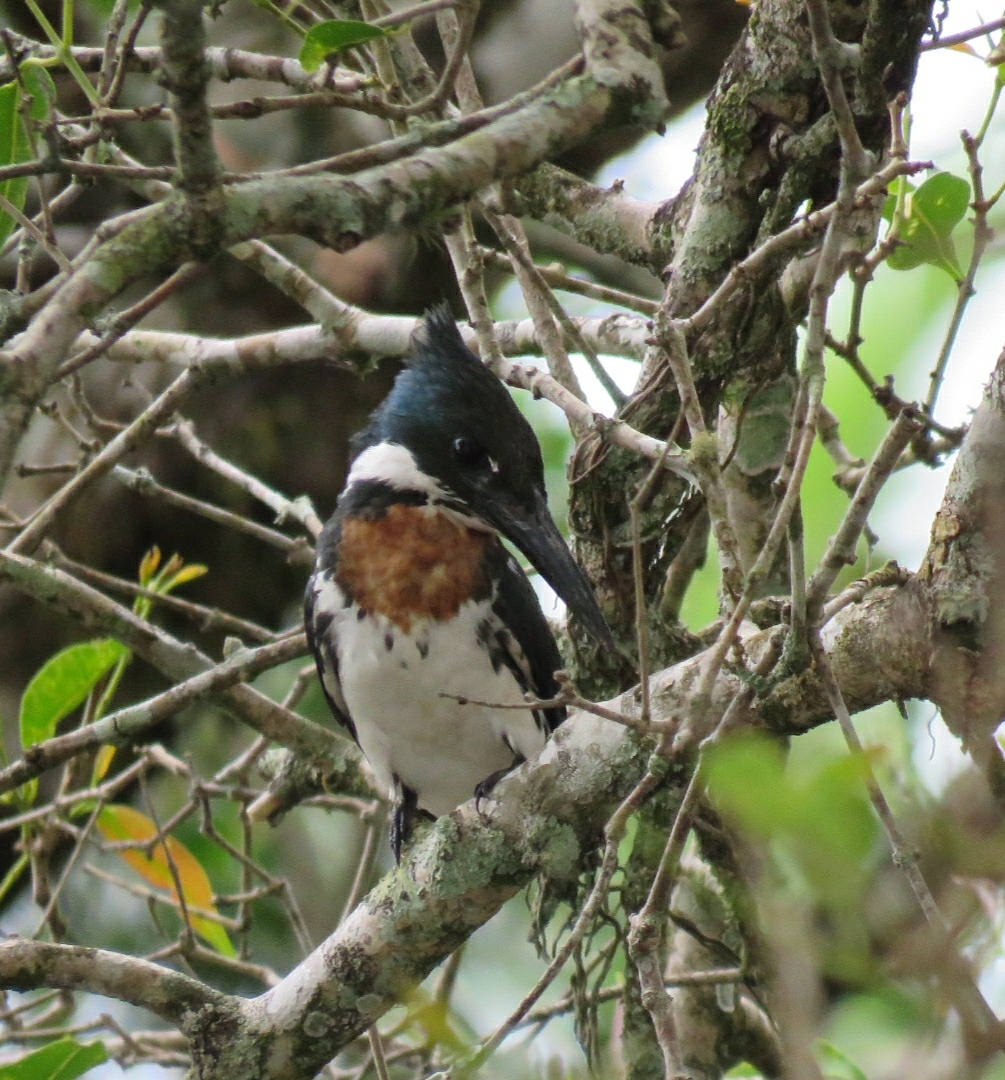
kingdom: Animalia
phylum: Chordata
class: Aves
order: Coraciiformes
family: Alcedinidae
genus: Chloroceryle
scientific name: Chloroceryle amazona
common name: Amazon kingfisher
